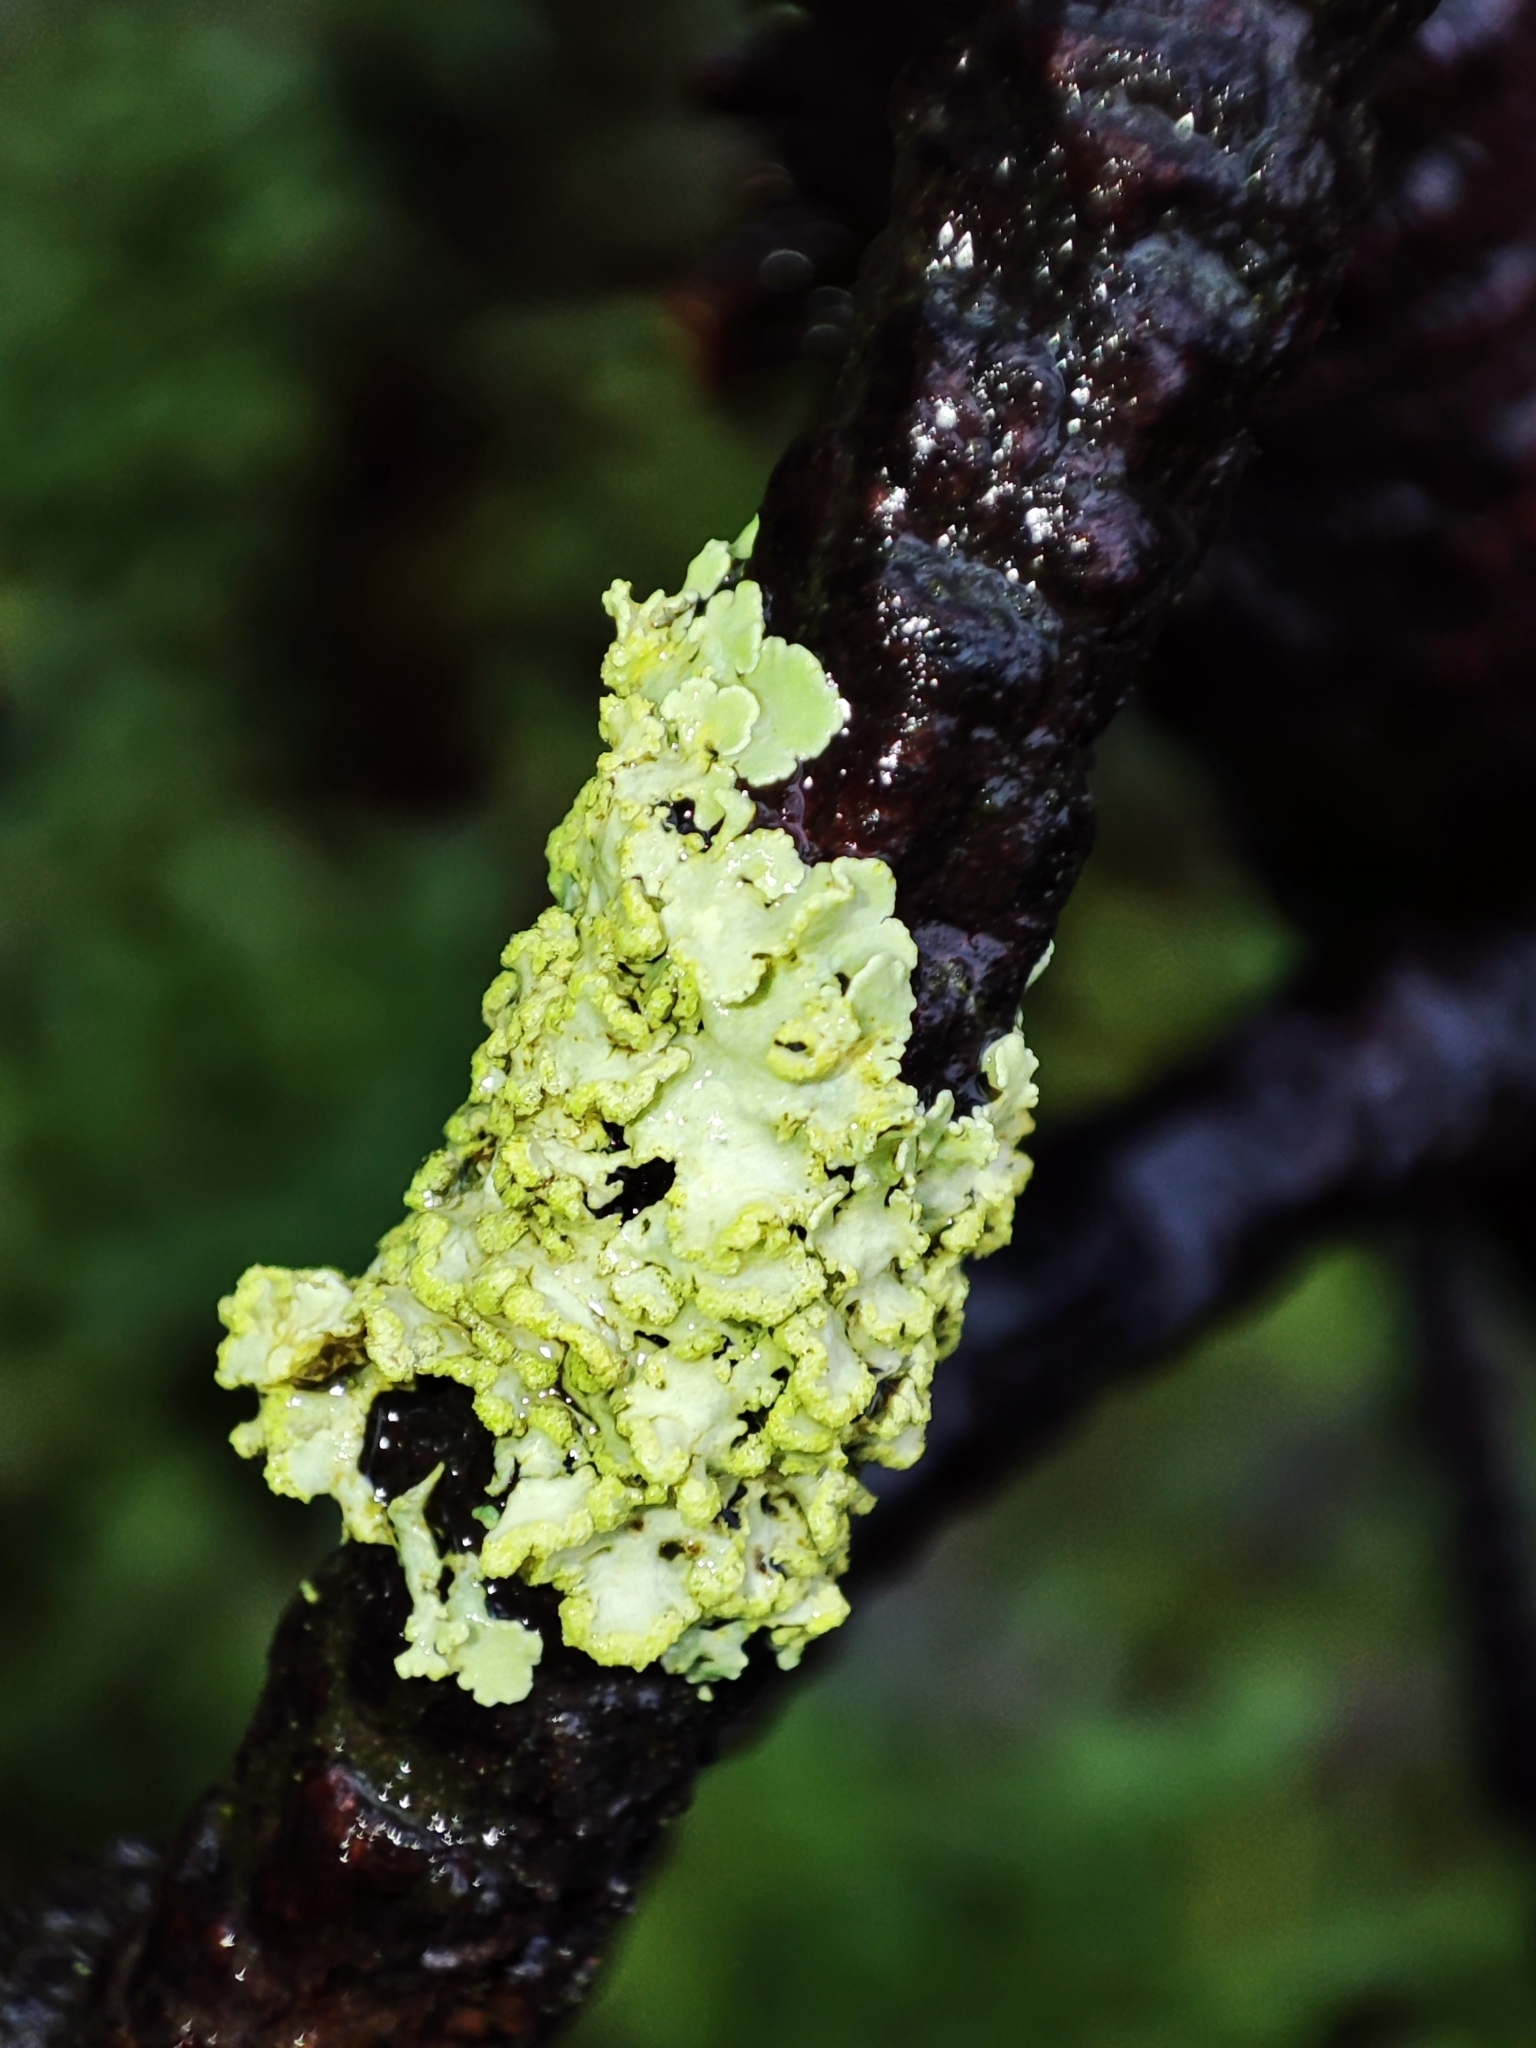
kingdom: Fungi
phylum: Ascomycota
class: Lecanoromycetes
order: Lecanorales
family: Parmeliaceae
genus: Vulpicida
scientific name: Vulpicida pinastri
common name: Powdered sunshine lichen
